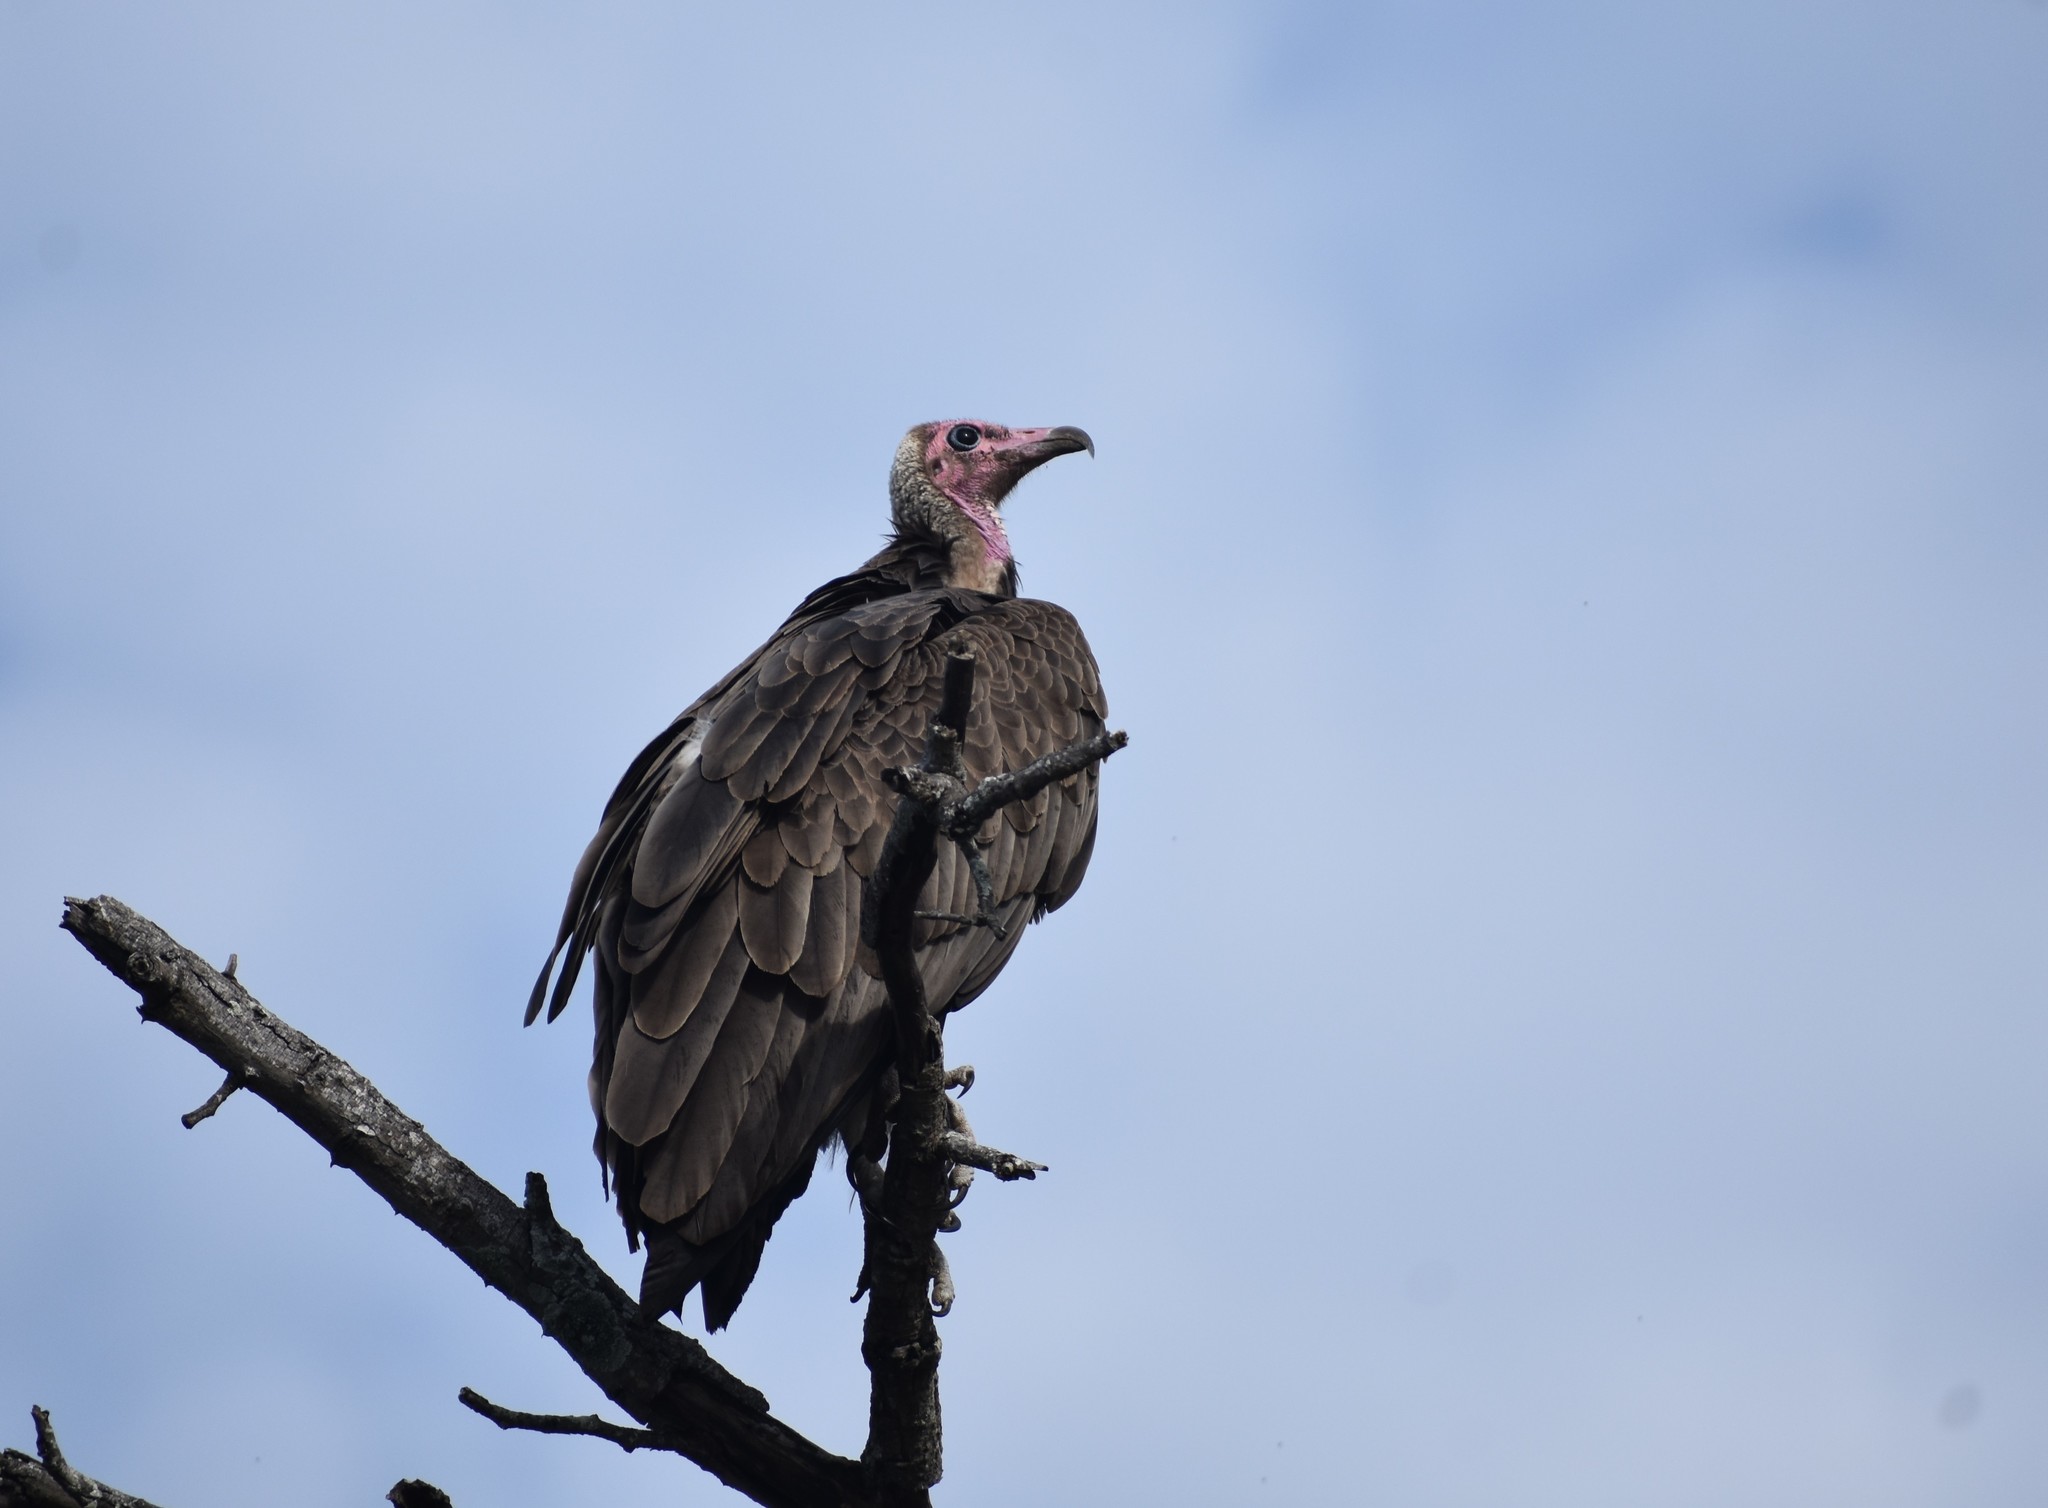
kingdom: Animalia
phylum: Chordata
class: Aves
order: Accipitriformes
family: Accipitridae
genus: Necrosyrtes
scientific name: Necrosyrtes monachus
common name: Hooded vulture
